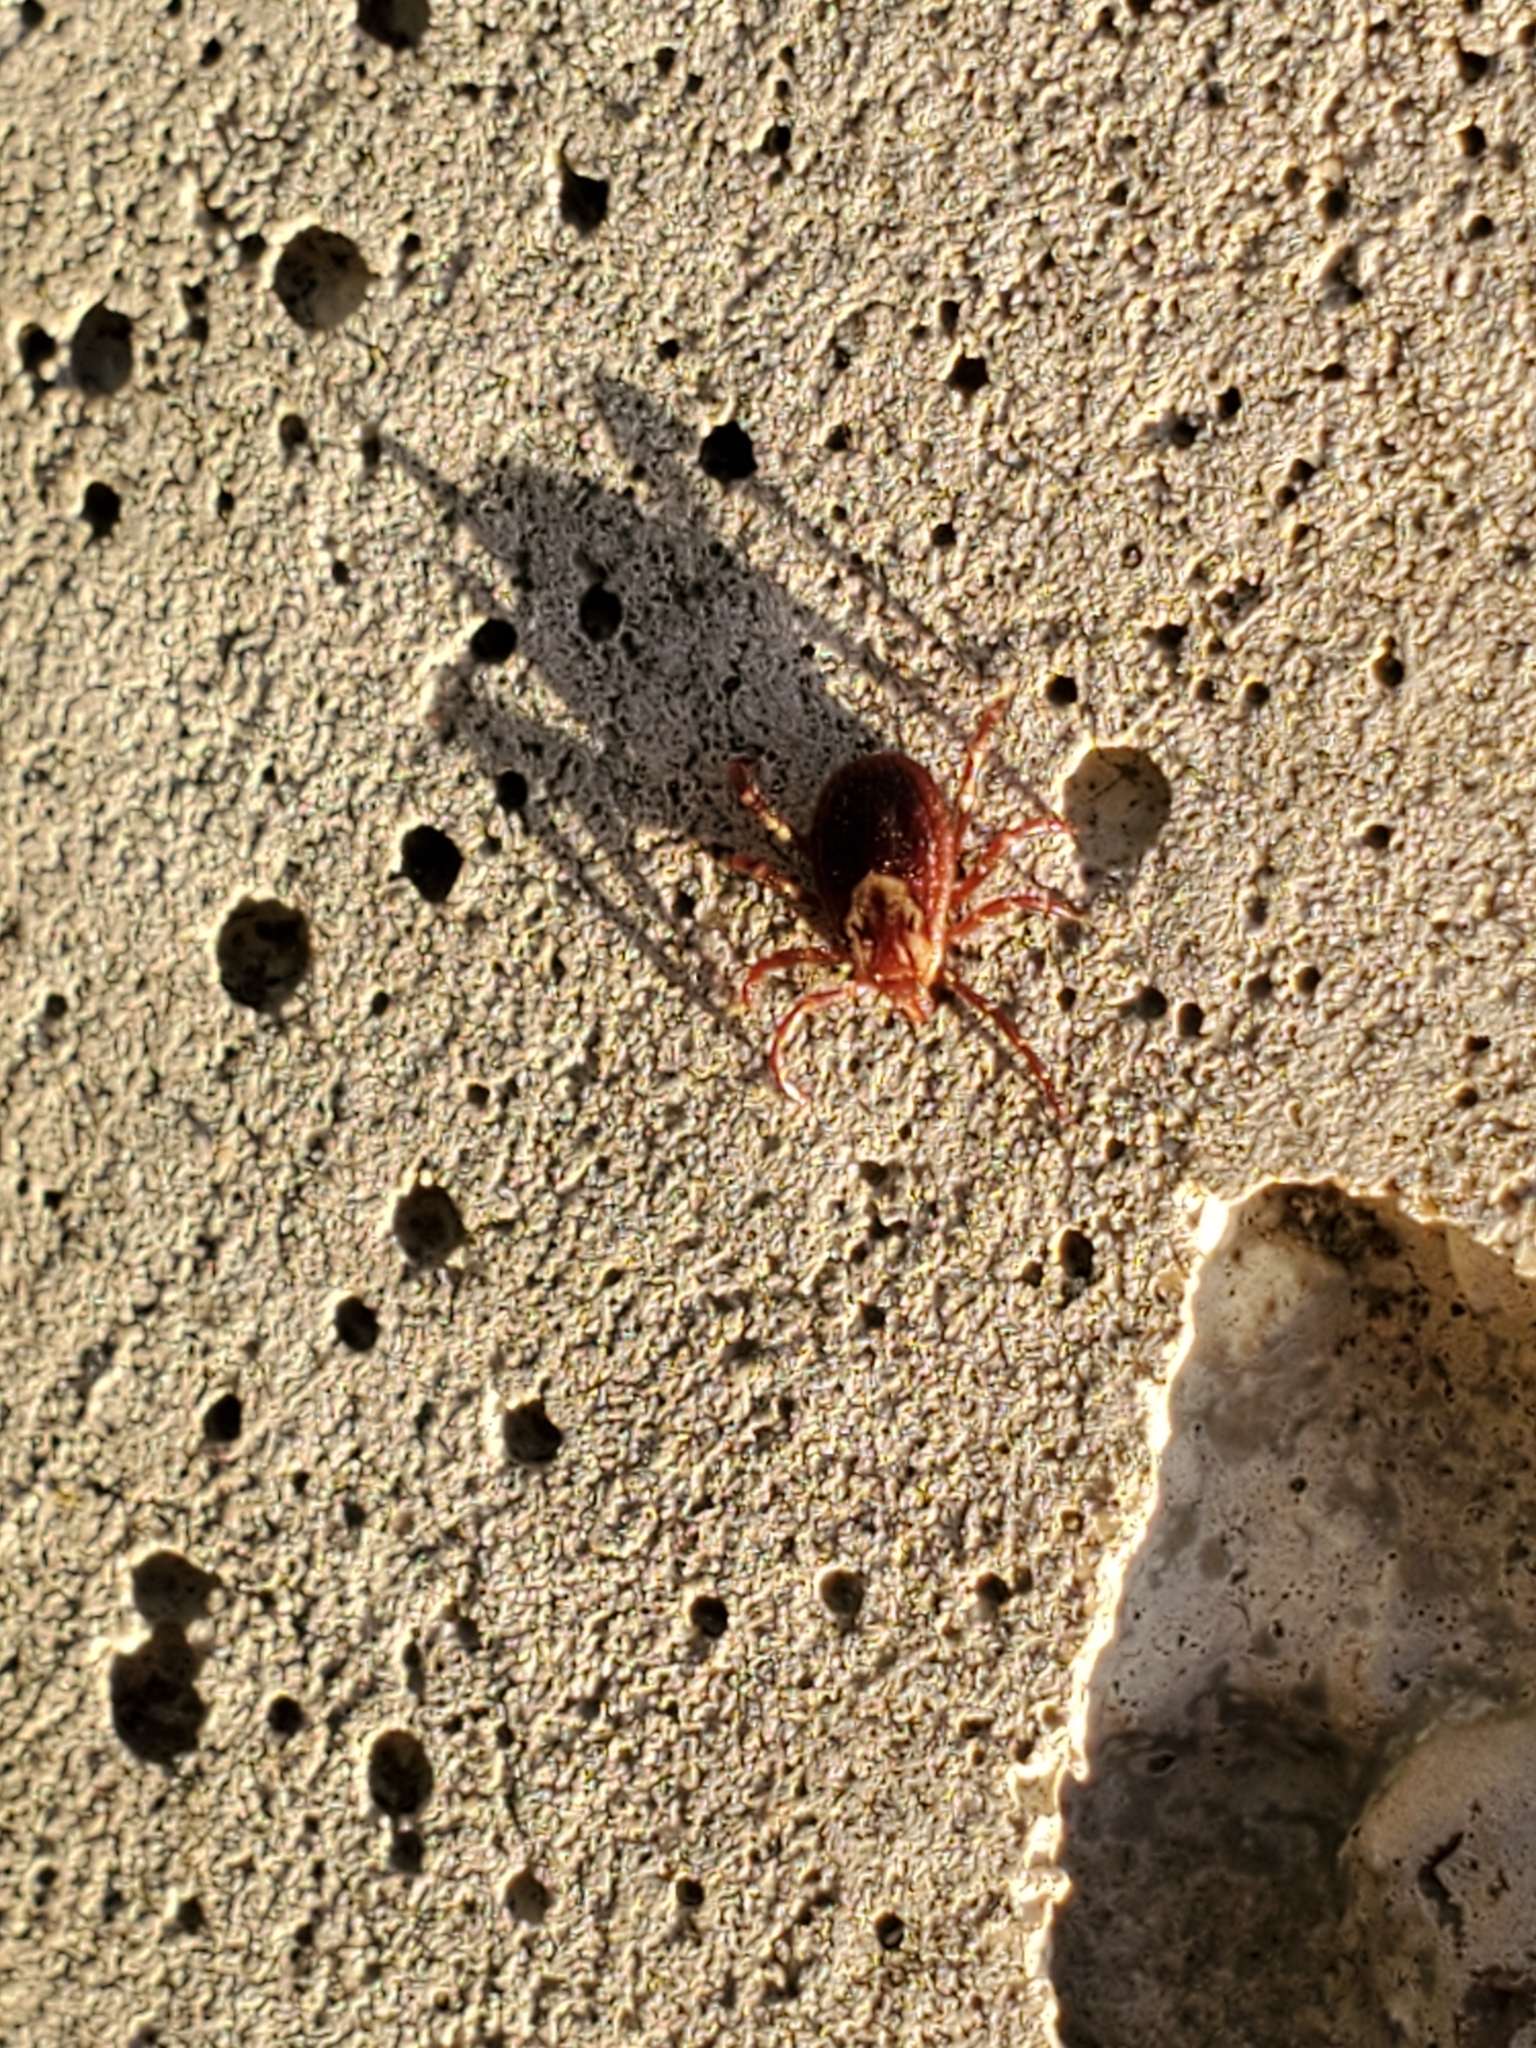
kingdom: Animalia
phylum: Arthropoda
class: Arachnida
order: Ixodida
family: Ixodidae
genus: Dermacentor
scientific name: Dermacentor variabilis
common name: American dog tick
